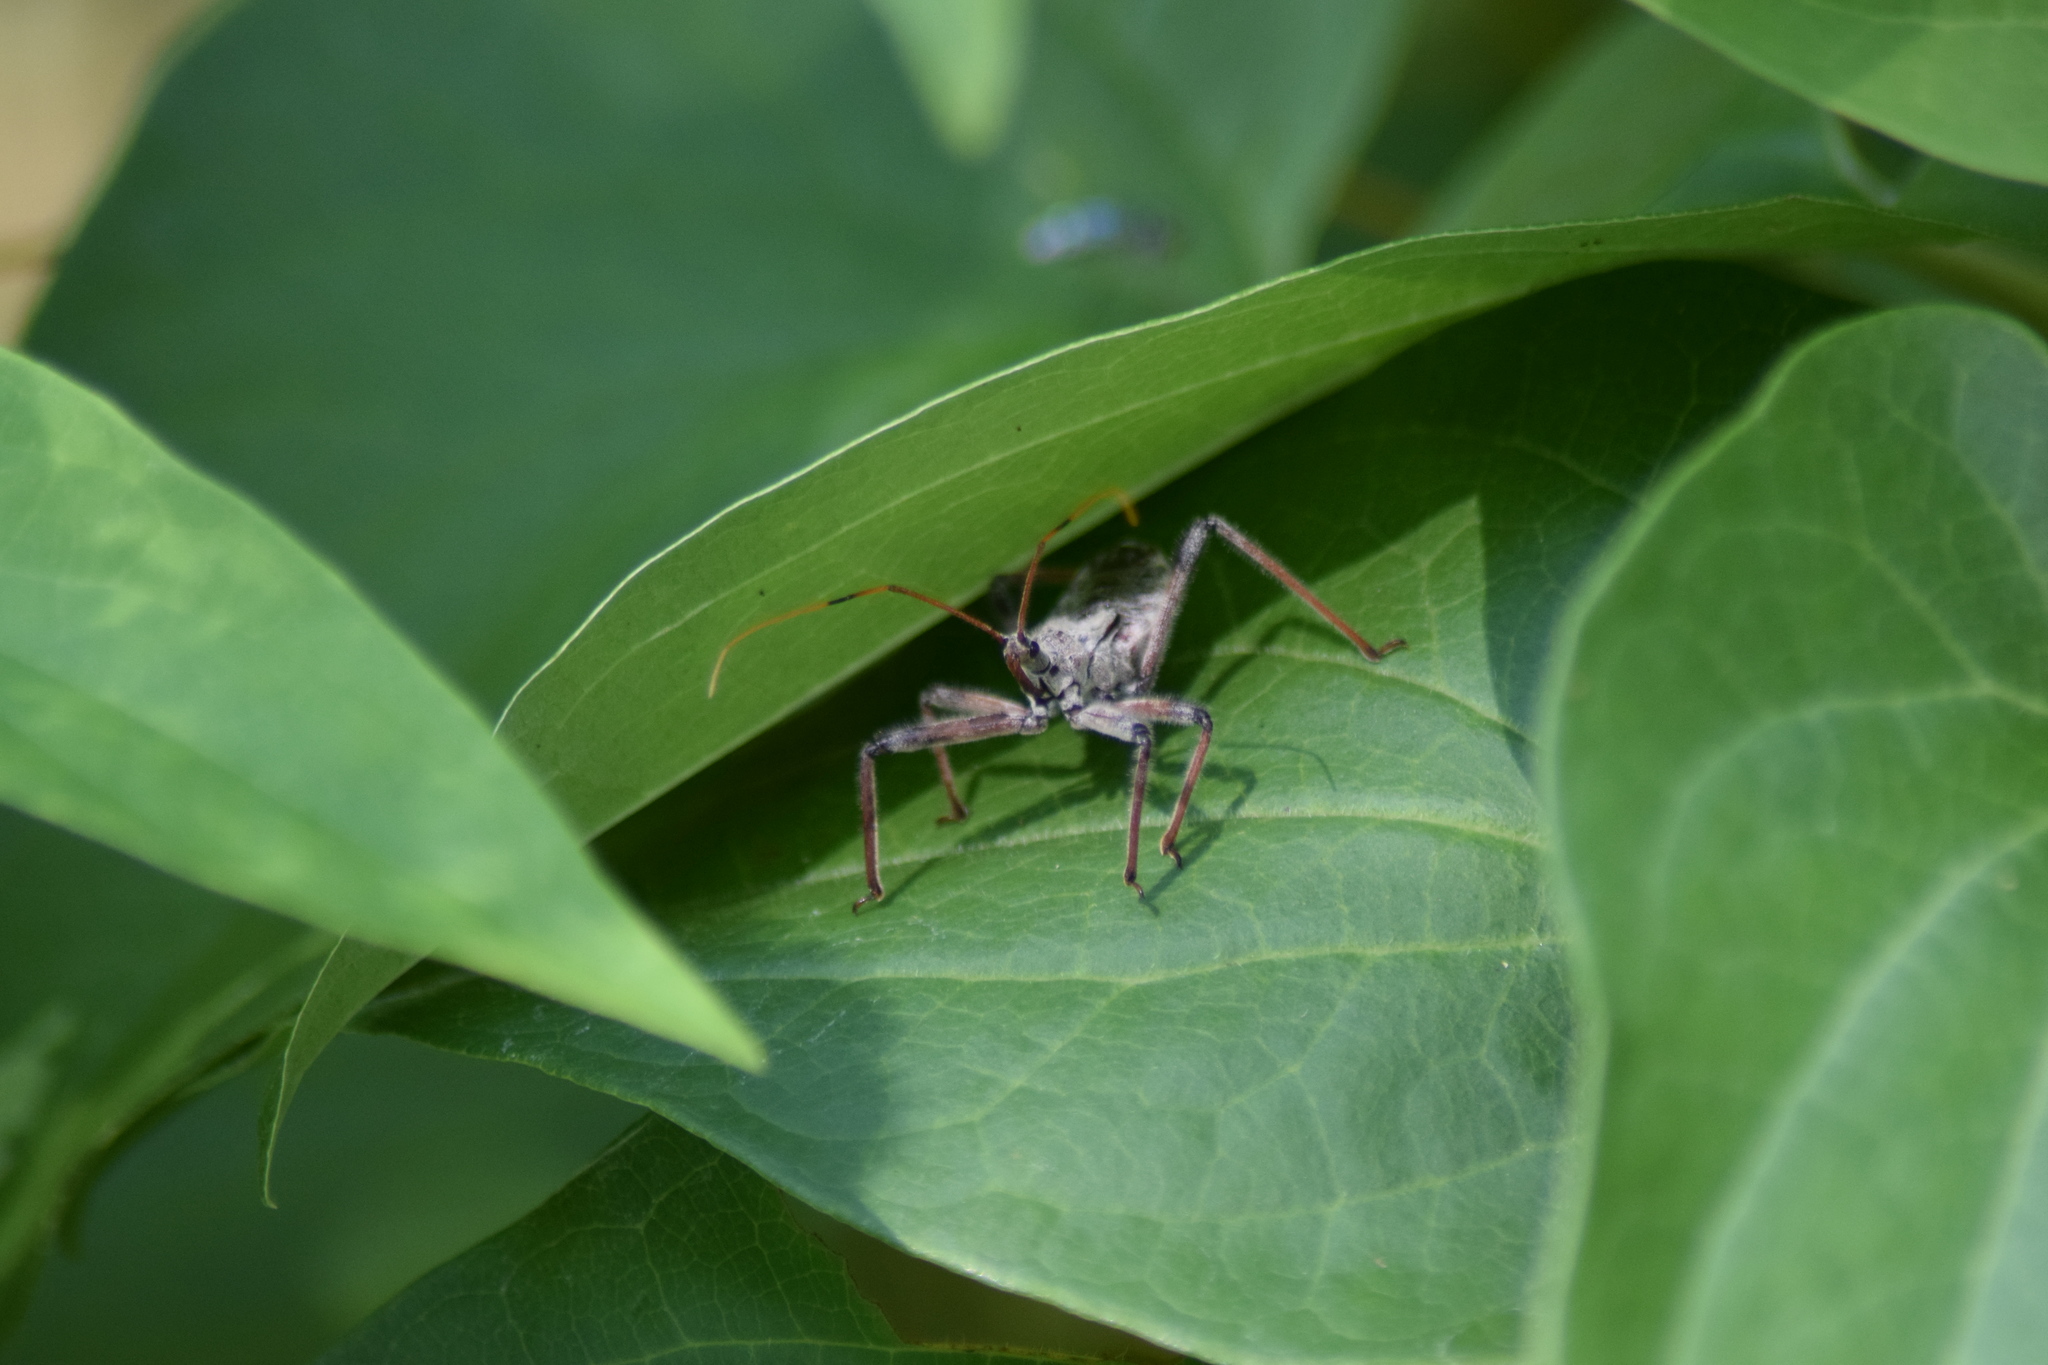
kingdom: Animalia
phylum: Arthropoda
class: Insecta
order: Hemiptera
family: Reduviidae
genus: Arilus
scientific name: Arilus cristatus
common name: North american wheel bug
